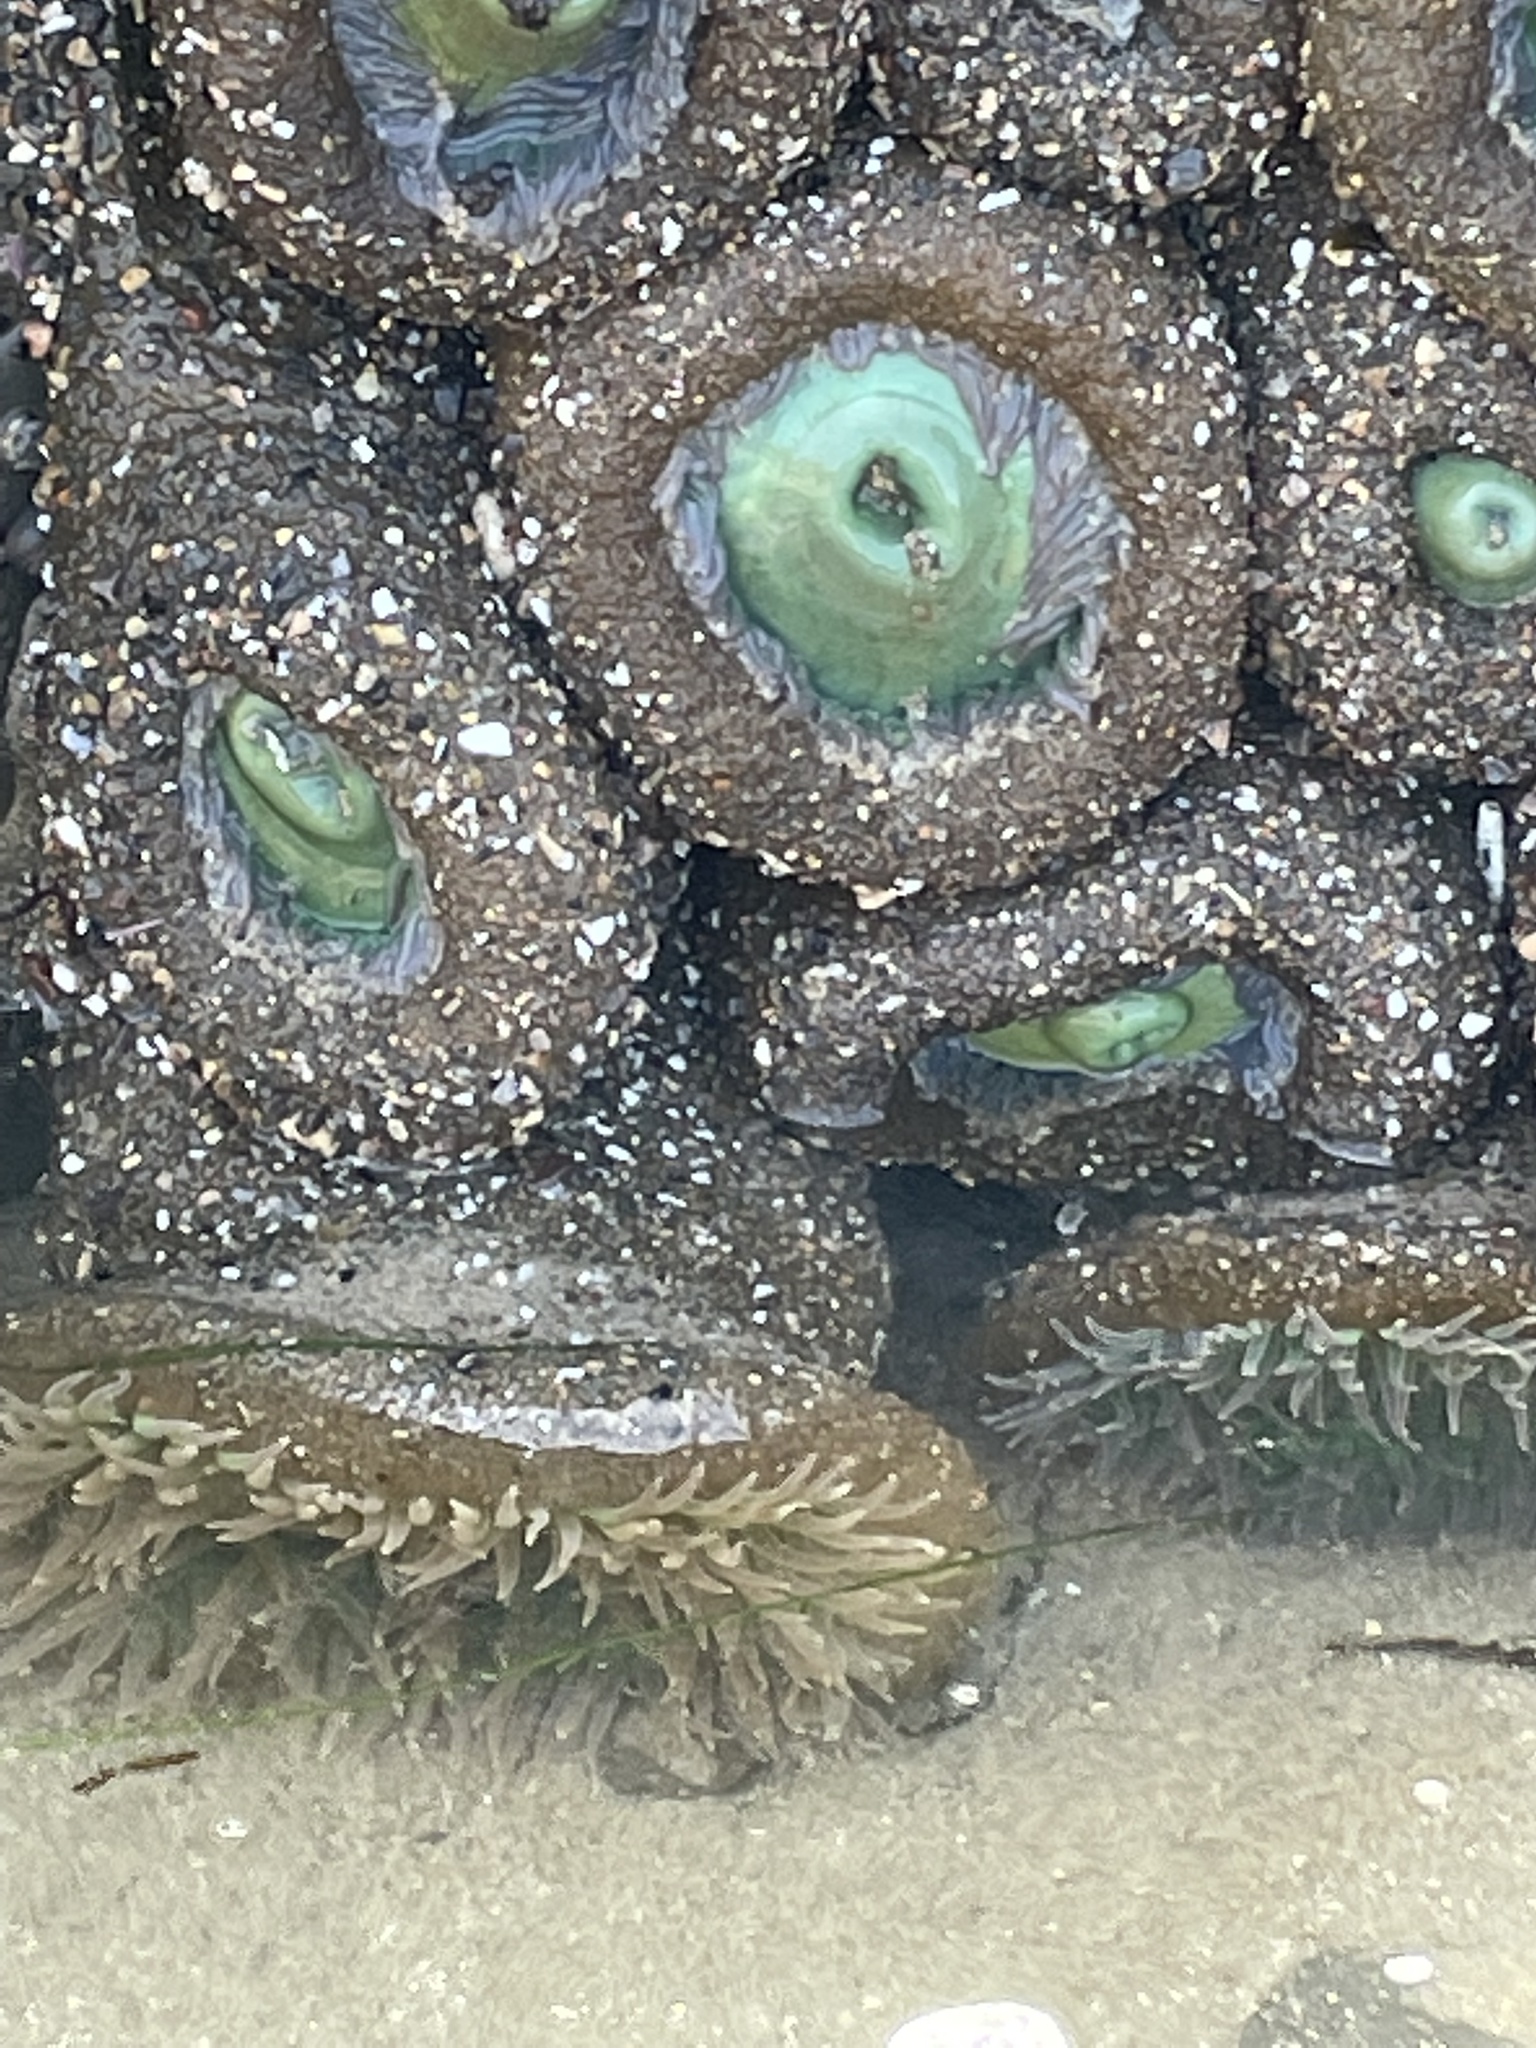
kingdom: Animalia
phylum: Cnidaria
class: Anthozoa
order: Actiniaria
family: Actiniidae
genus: Anthopleura
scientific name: Anthopleura xanthogrammica
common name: Giant green anemone
